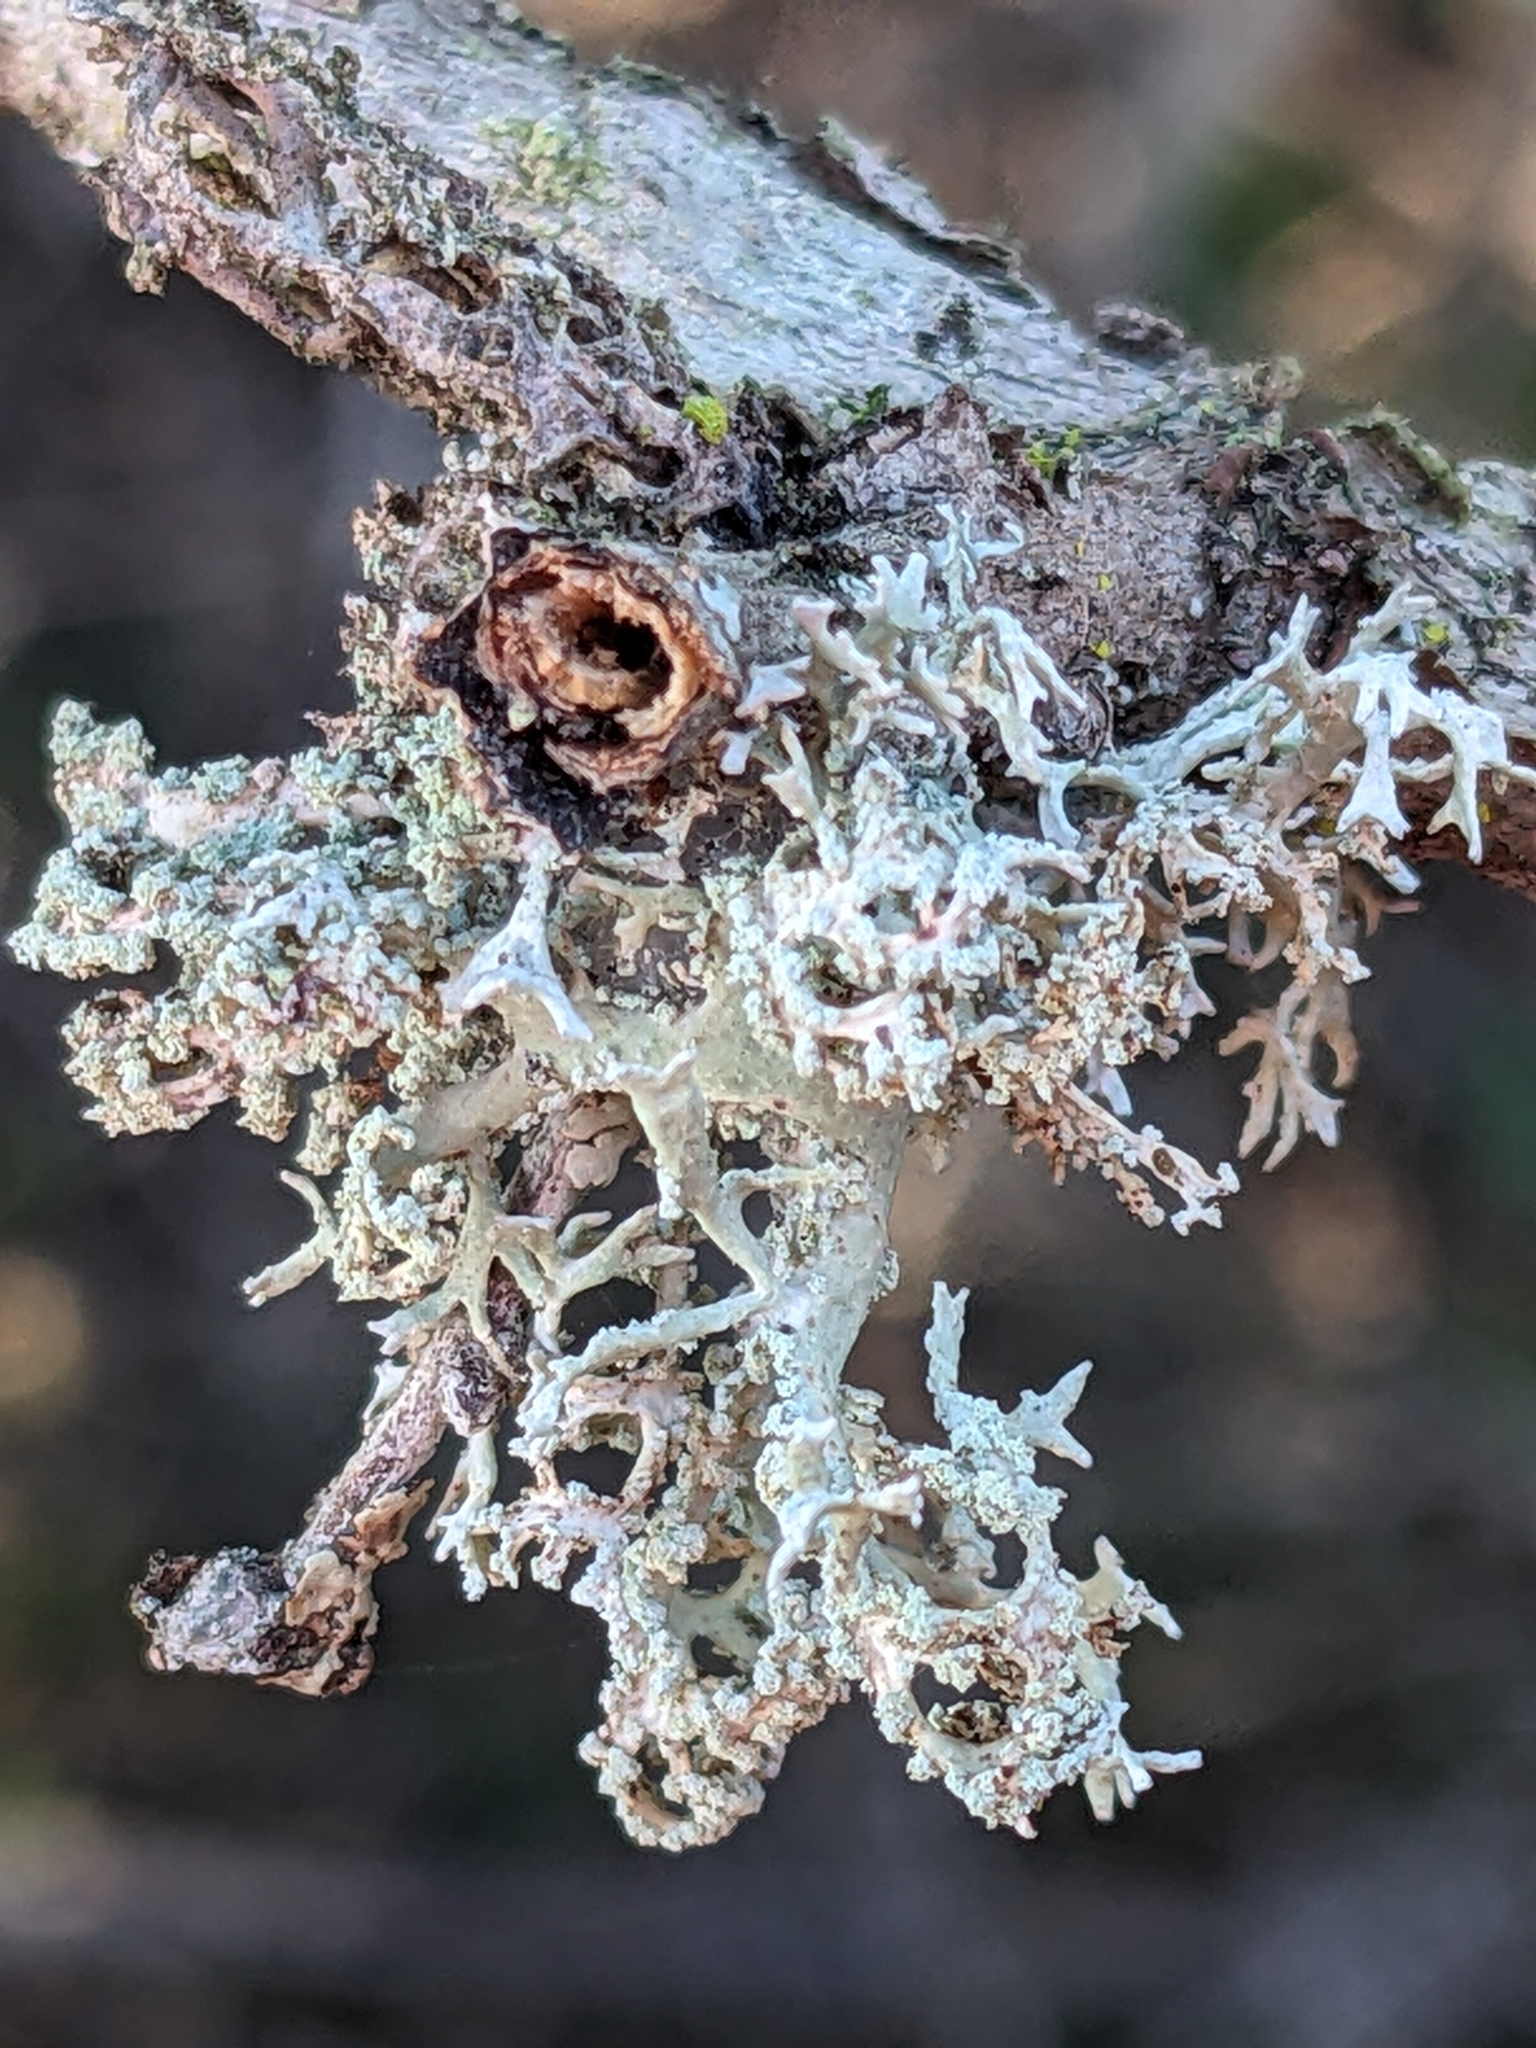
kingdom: Fungi
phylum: Ascomycota
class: Lecanoromycetes
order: Lecanorales
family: Parmeliaceae
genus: Evernia
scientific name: Evernia prunastri
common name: Oak moss
